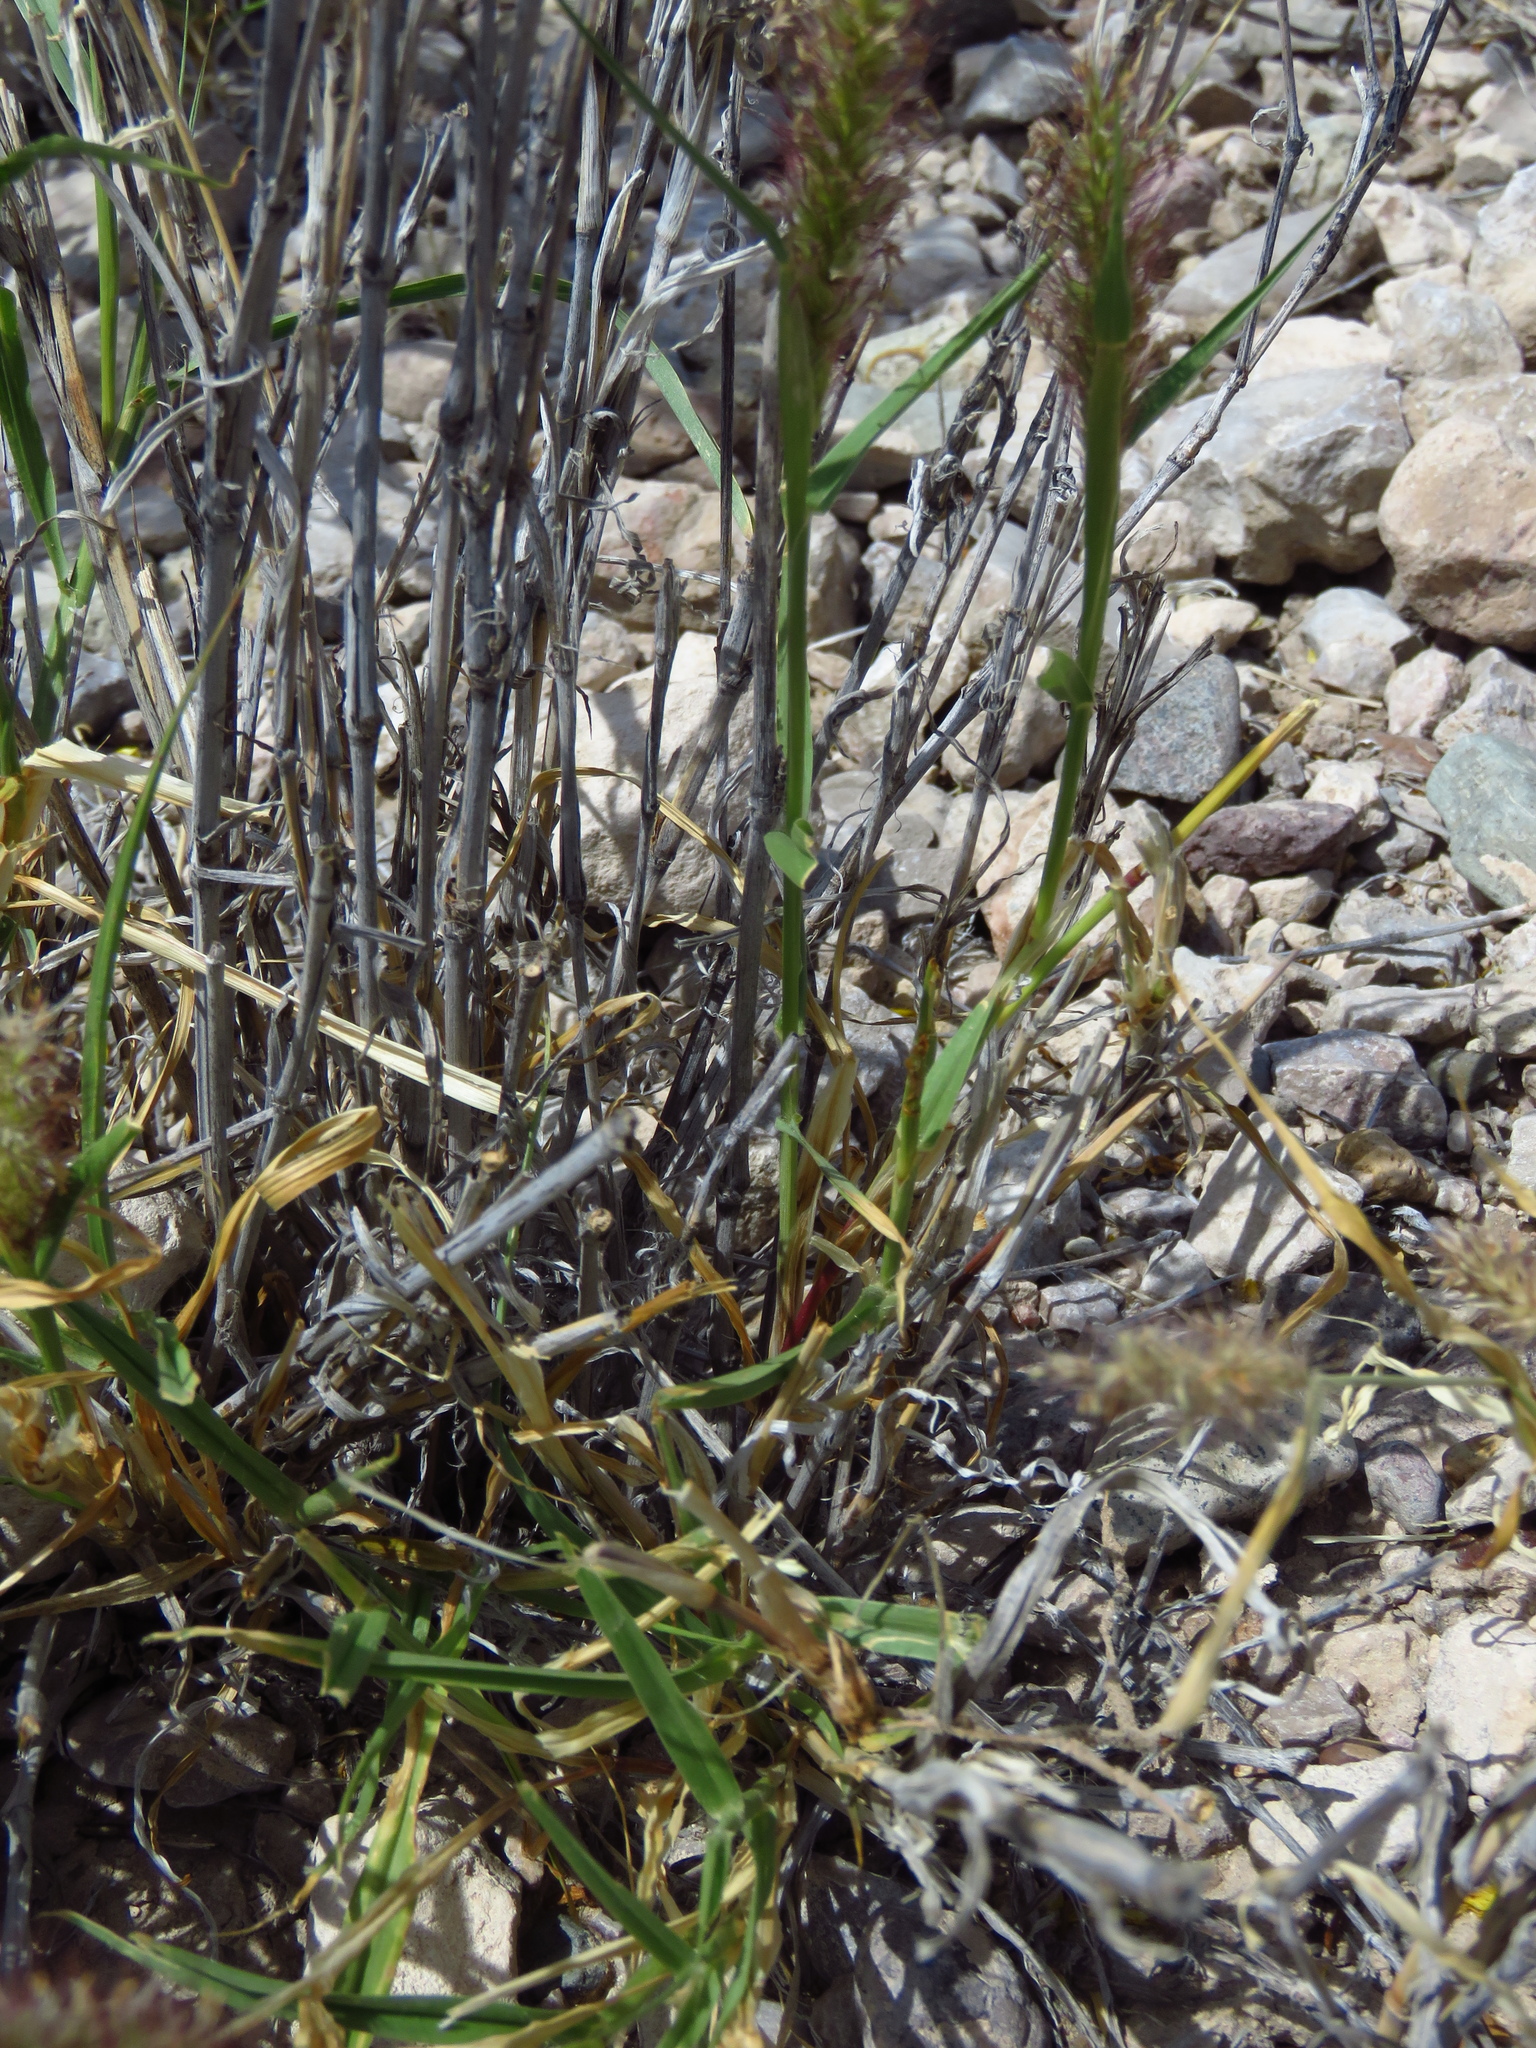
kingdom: Plantae
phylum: Tracheophyta
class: Liliopsida
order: Poales
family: Poaceae
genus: Cenchrus
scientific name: Cenchrus ciliaris
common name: Buffelgrass
